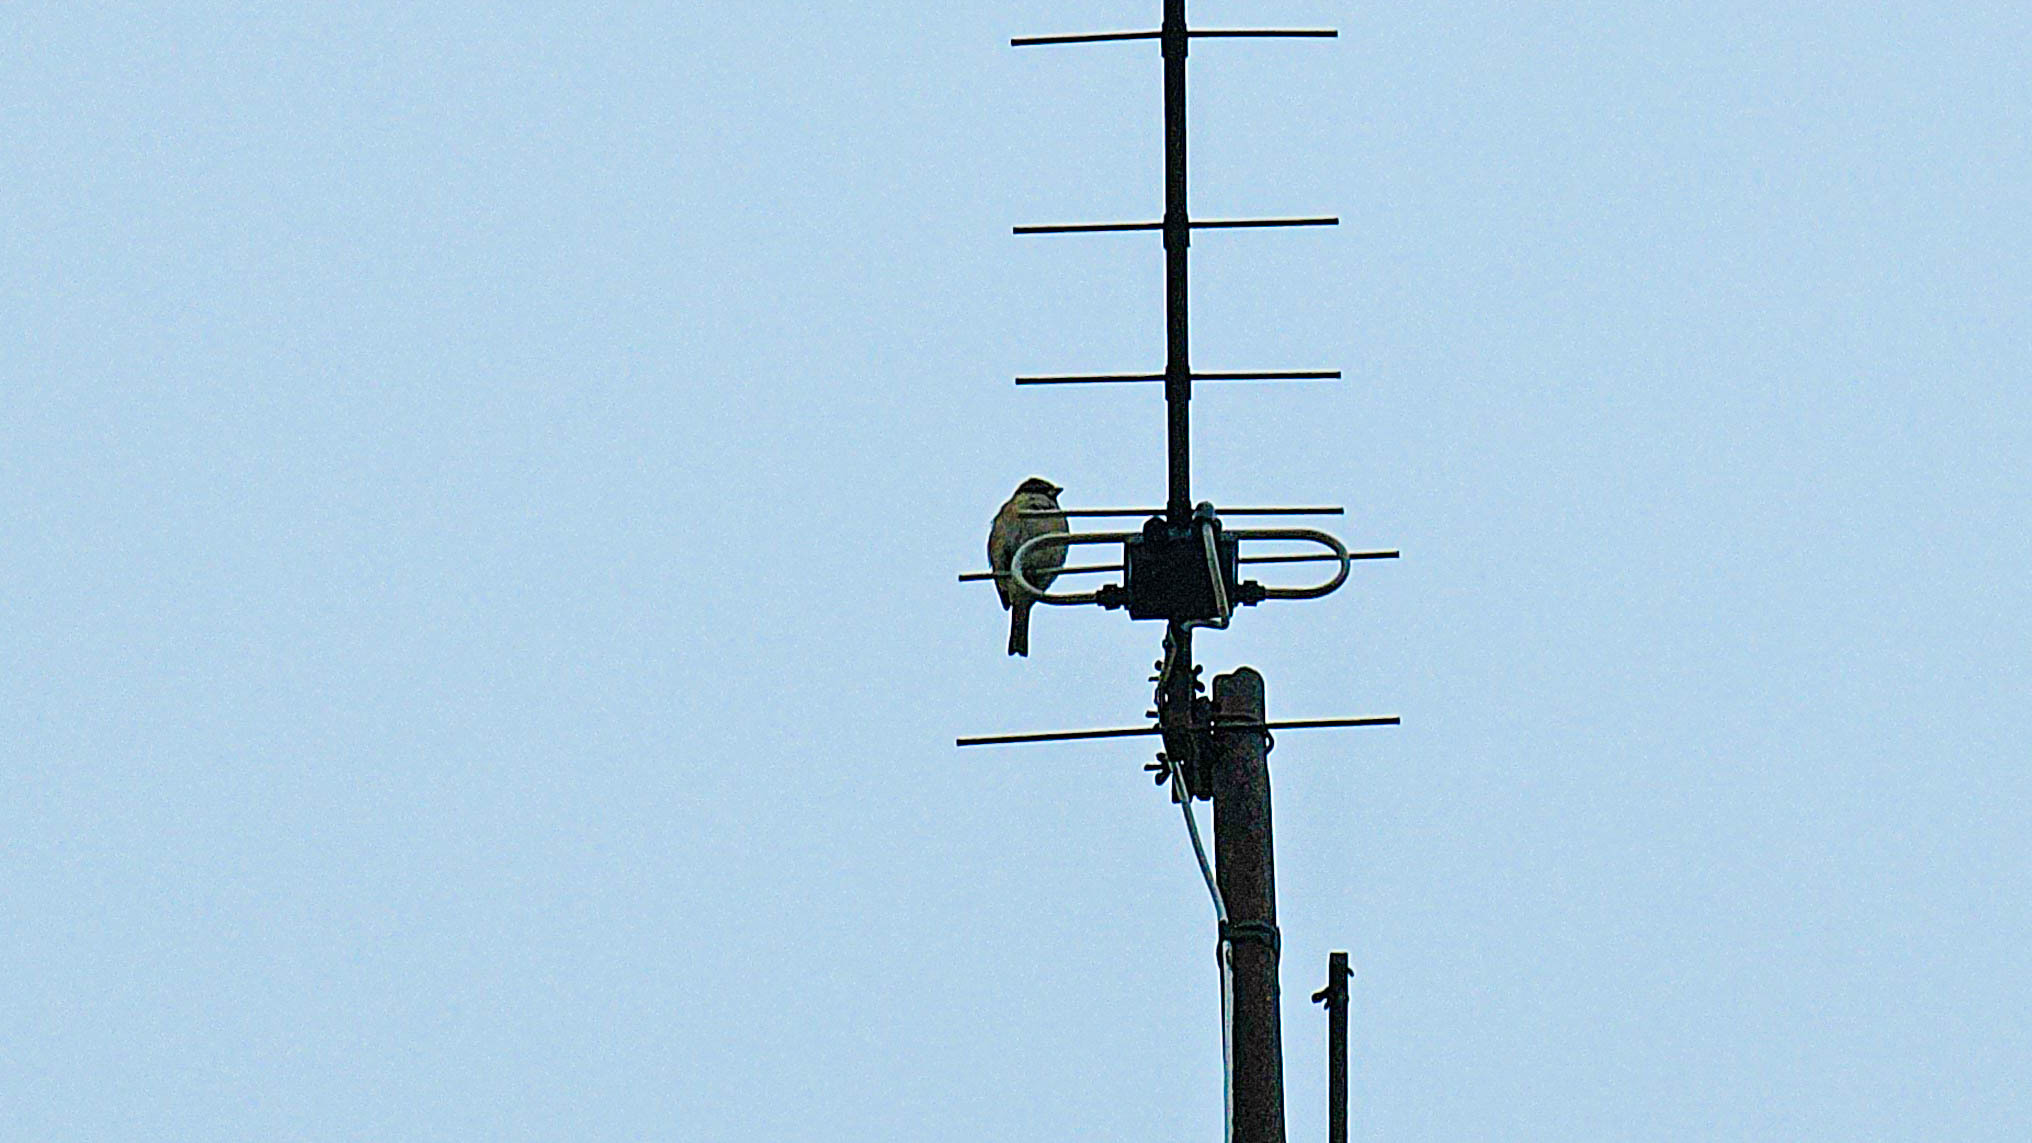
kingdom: Animalia
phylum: Chordata
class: Aves
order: Passeriformes
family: Passeridae
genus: Passer
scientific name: Passer domesticus
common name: House sparrow
